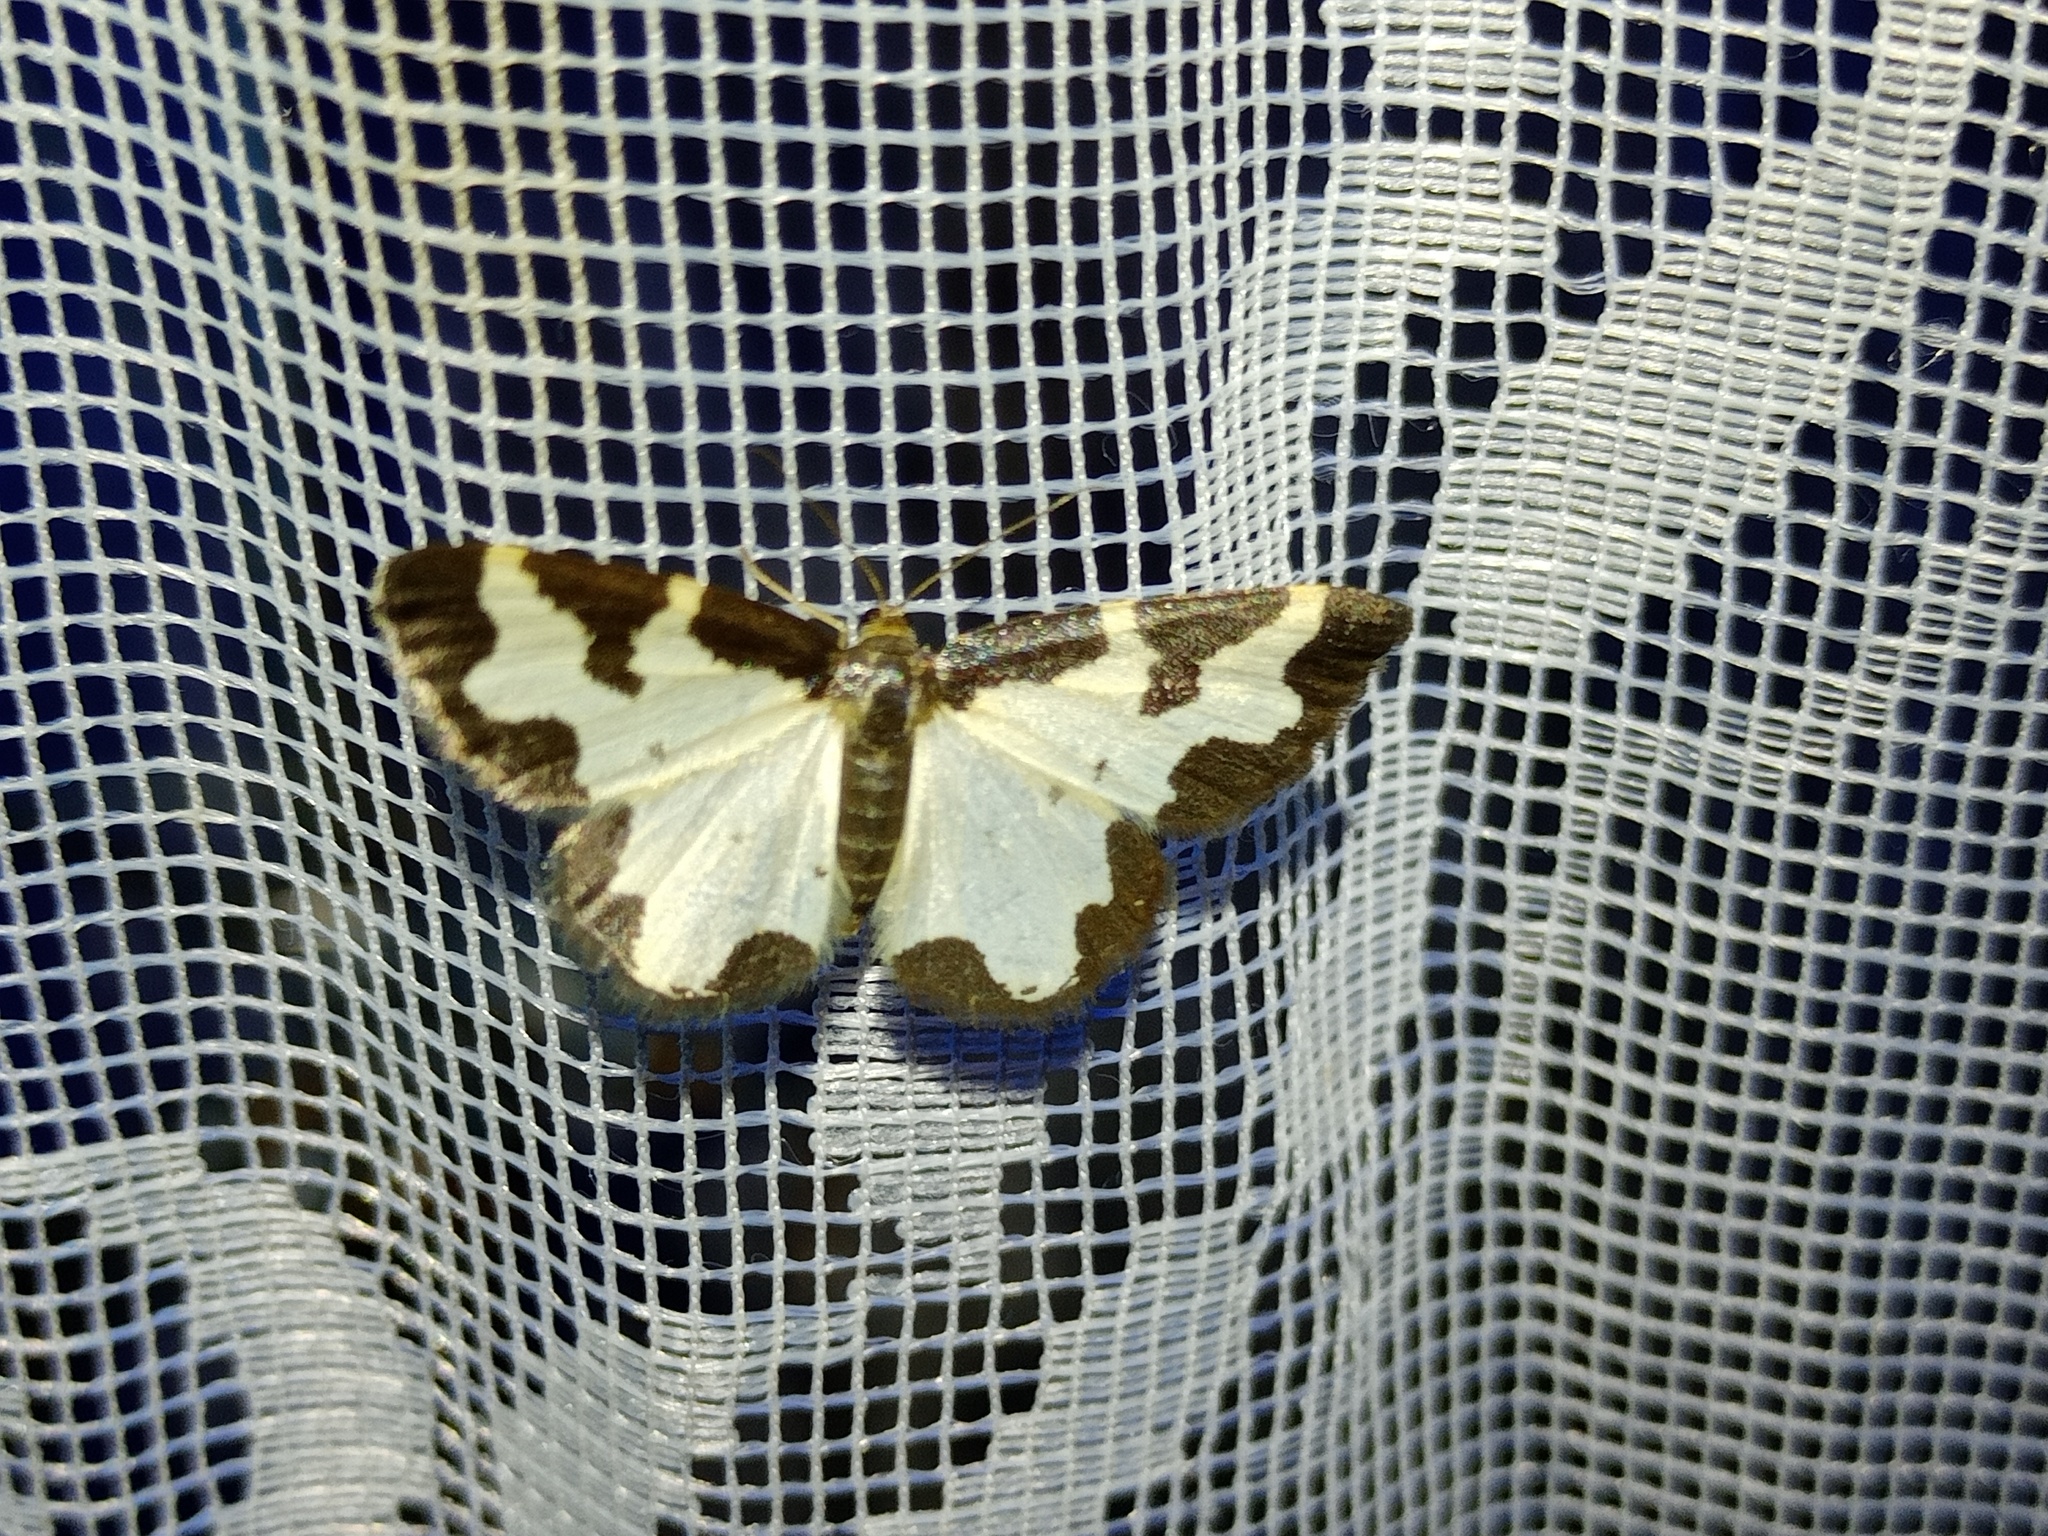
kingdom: Animalia
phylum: Arthropoda
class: Insecta
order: Lepidoptera
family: Geometridae
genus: Lomaspilis
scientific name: Lomaspilis marginata
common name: Clouded border
